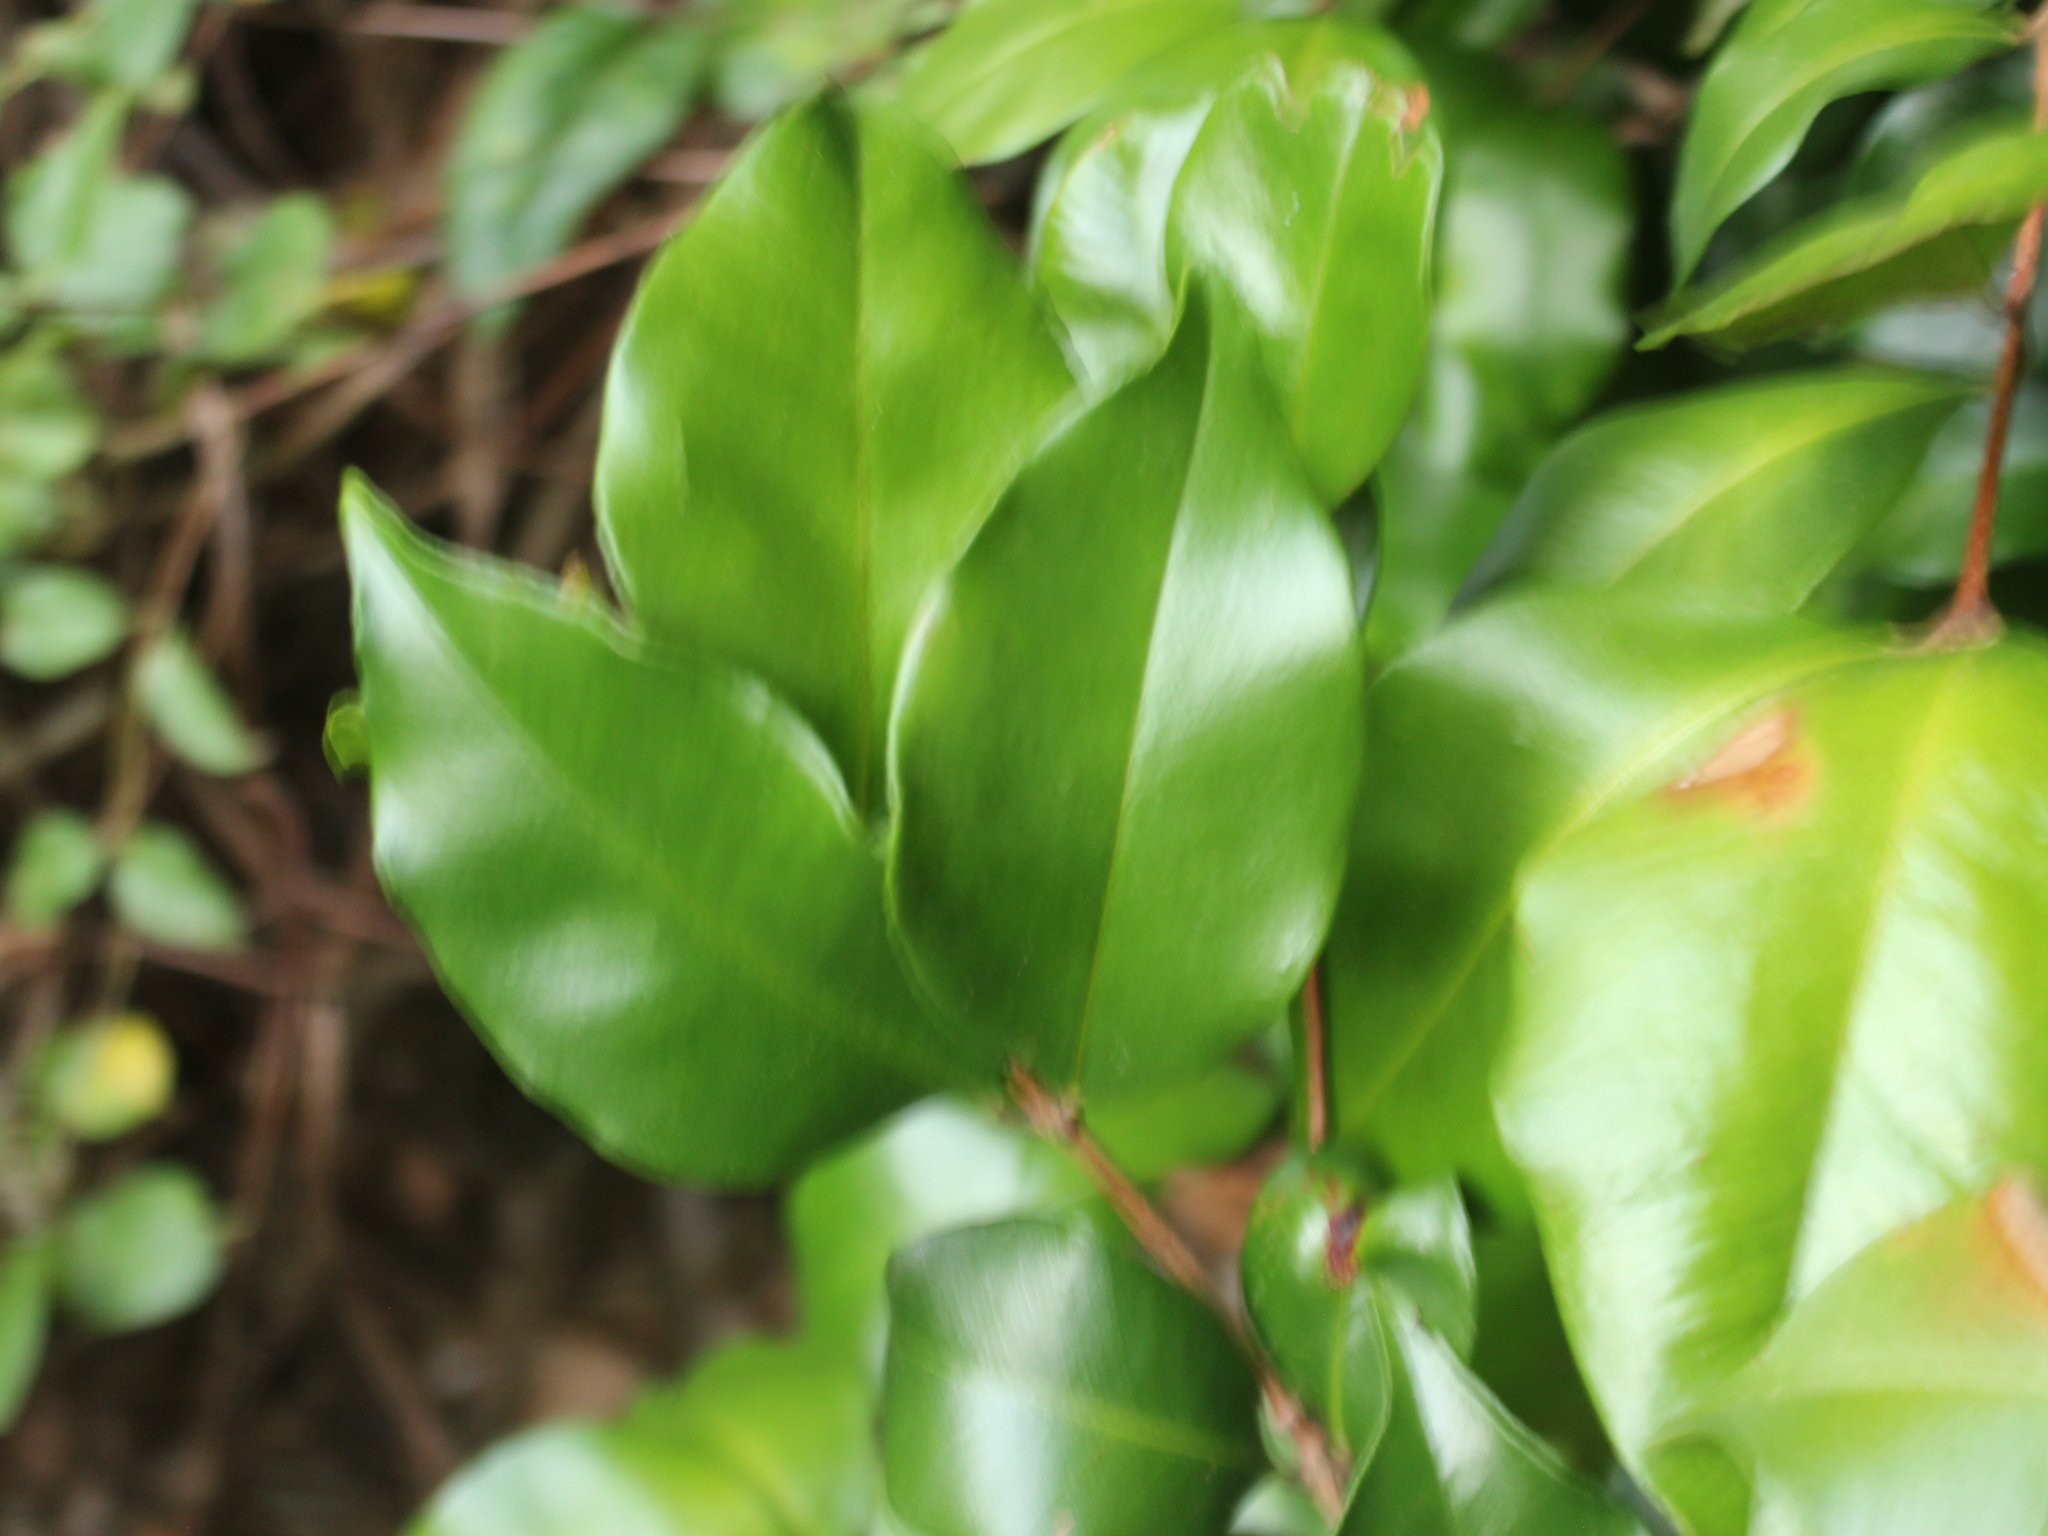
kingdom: Plantae
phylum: Tracheophyta
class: Magnoliopsida
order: Myrtales
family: Myrtaceae
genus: Syzygium
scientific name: Syzygium smithii
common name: Lilly-pilly
